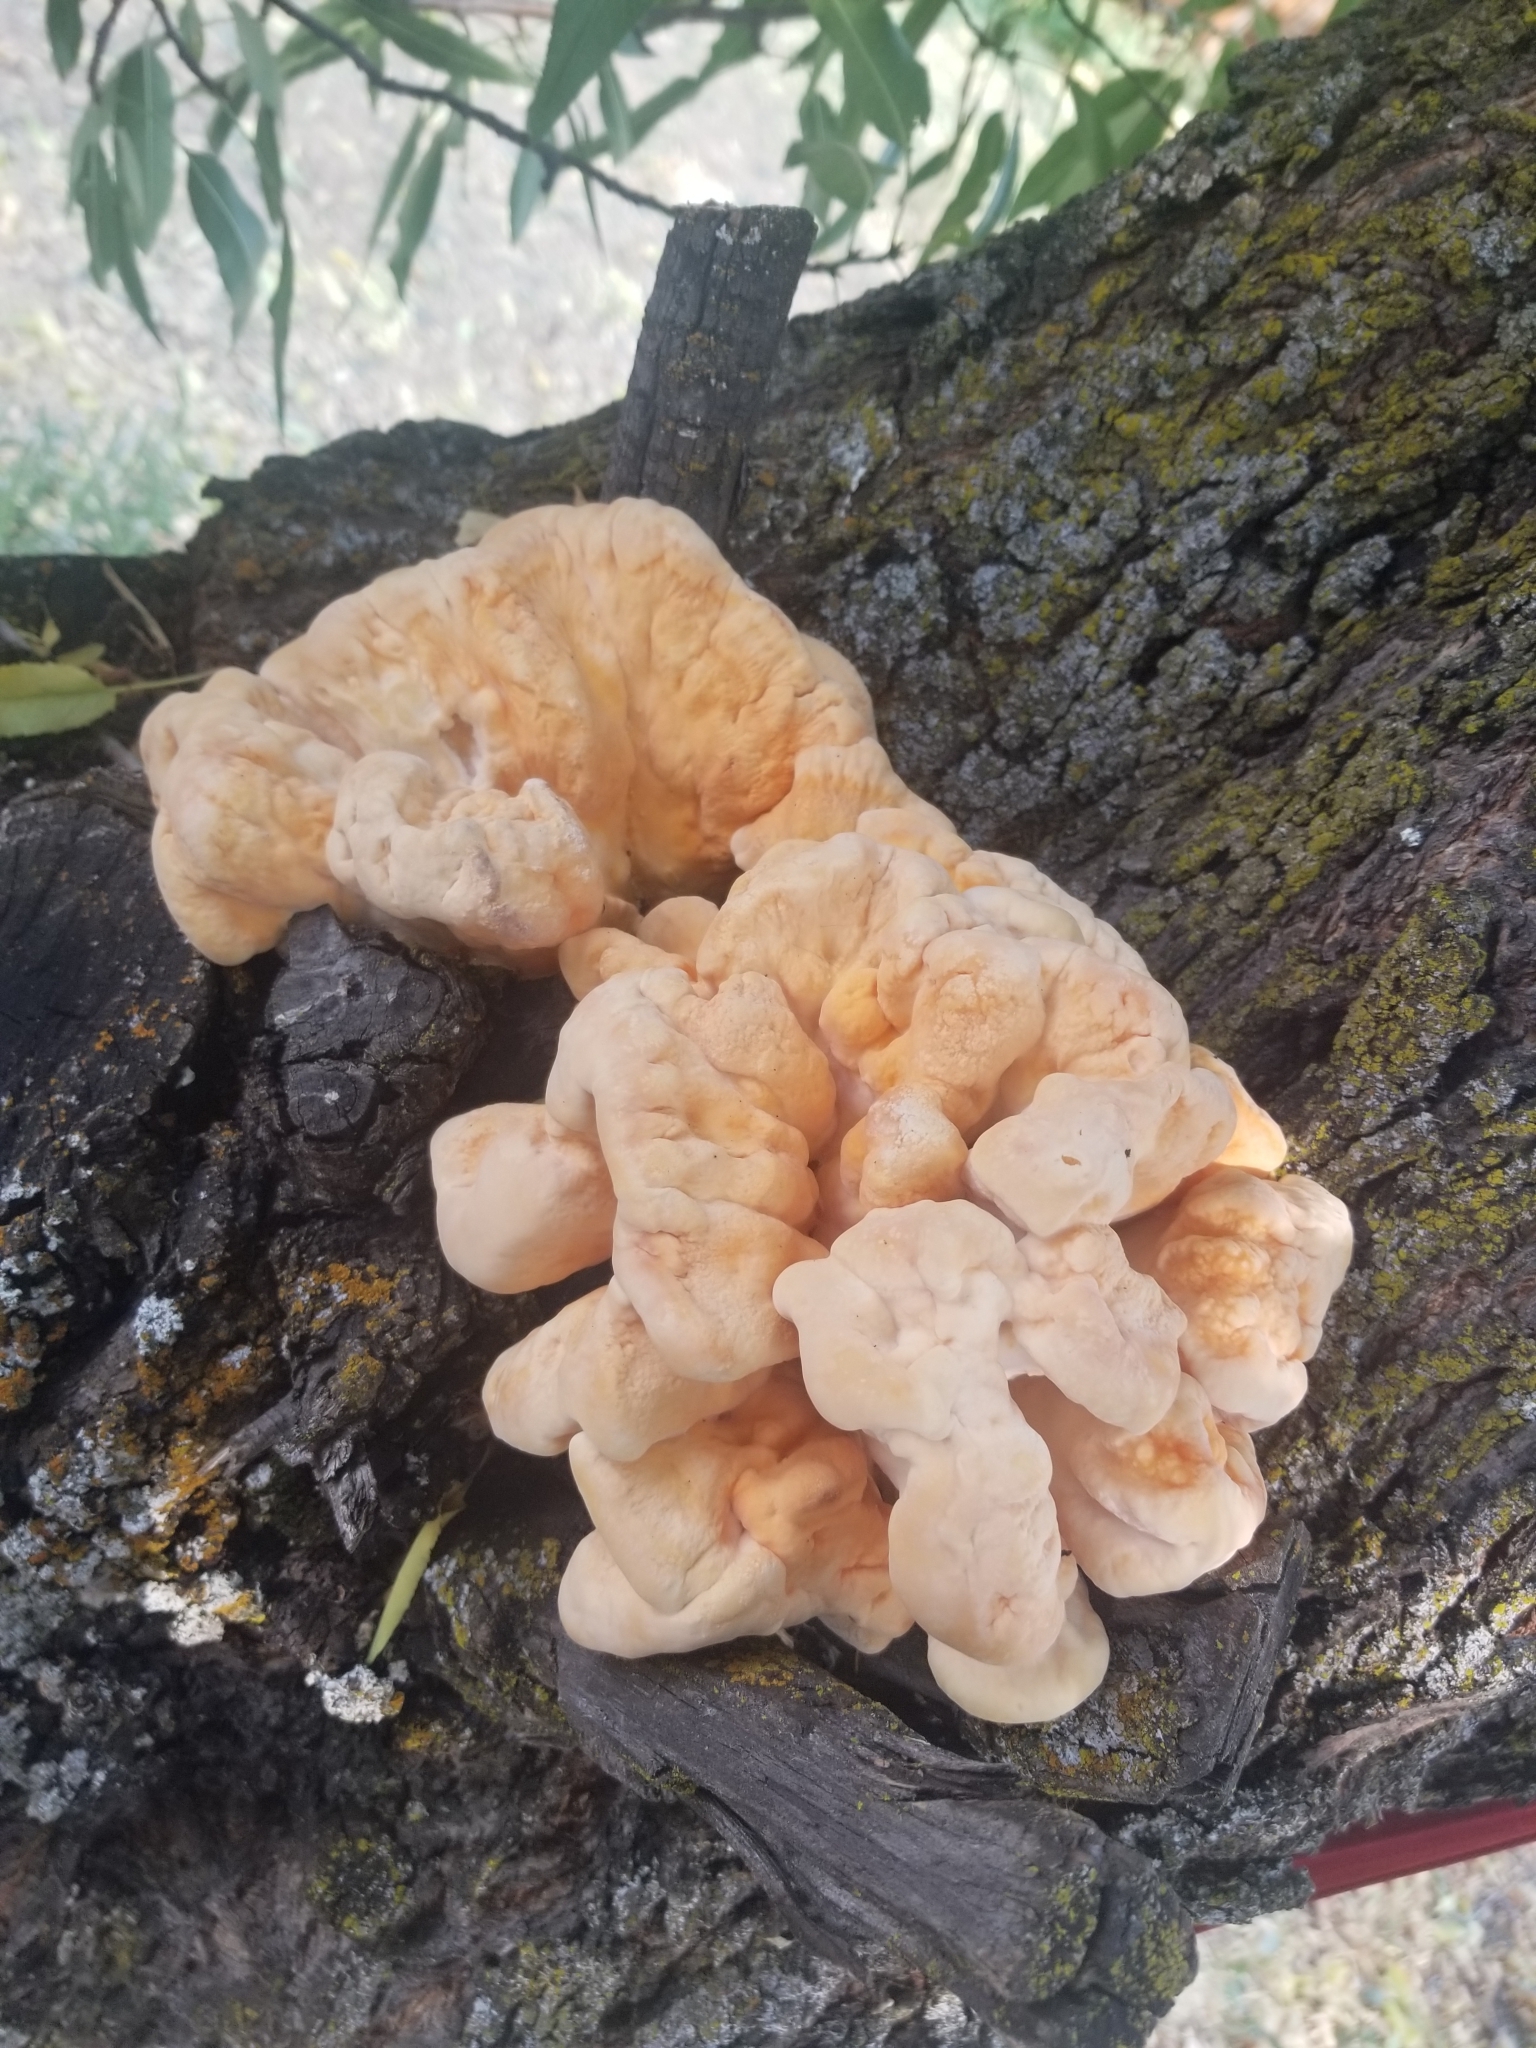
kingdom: Fungi
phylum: Basidiomycota
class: Agaricomycetes
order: Polyporales
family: Laetiporaceae
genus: Laetiporus
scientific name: Laetiporus gilbertsonii
